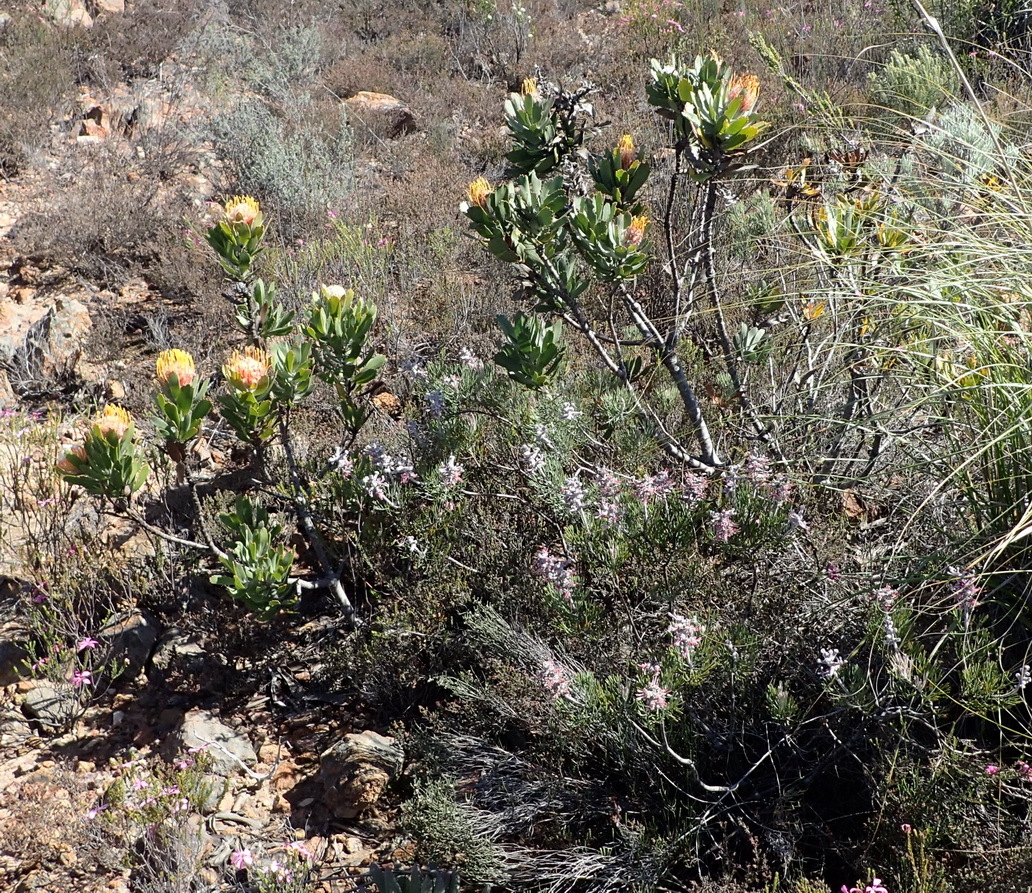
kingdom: Plantae
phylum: Tracheophyta
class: Magnoliopsida
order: Proteales
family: Proteaceae
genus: Leucospermum
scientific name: Leucospermum pluridens
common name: Robinson pincushion
